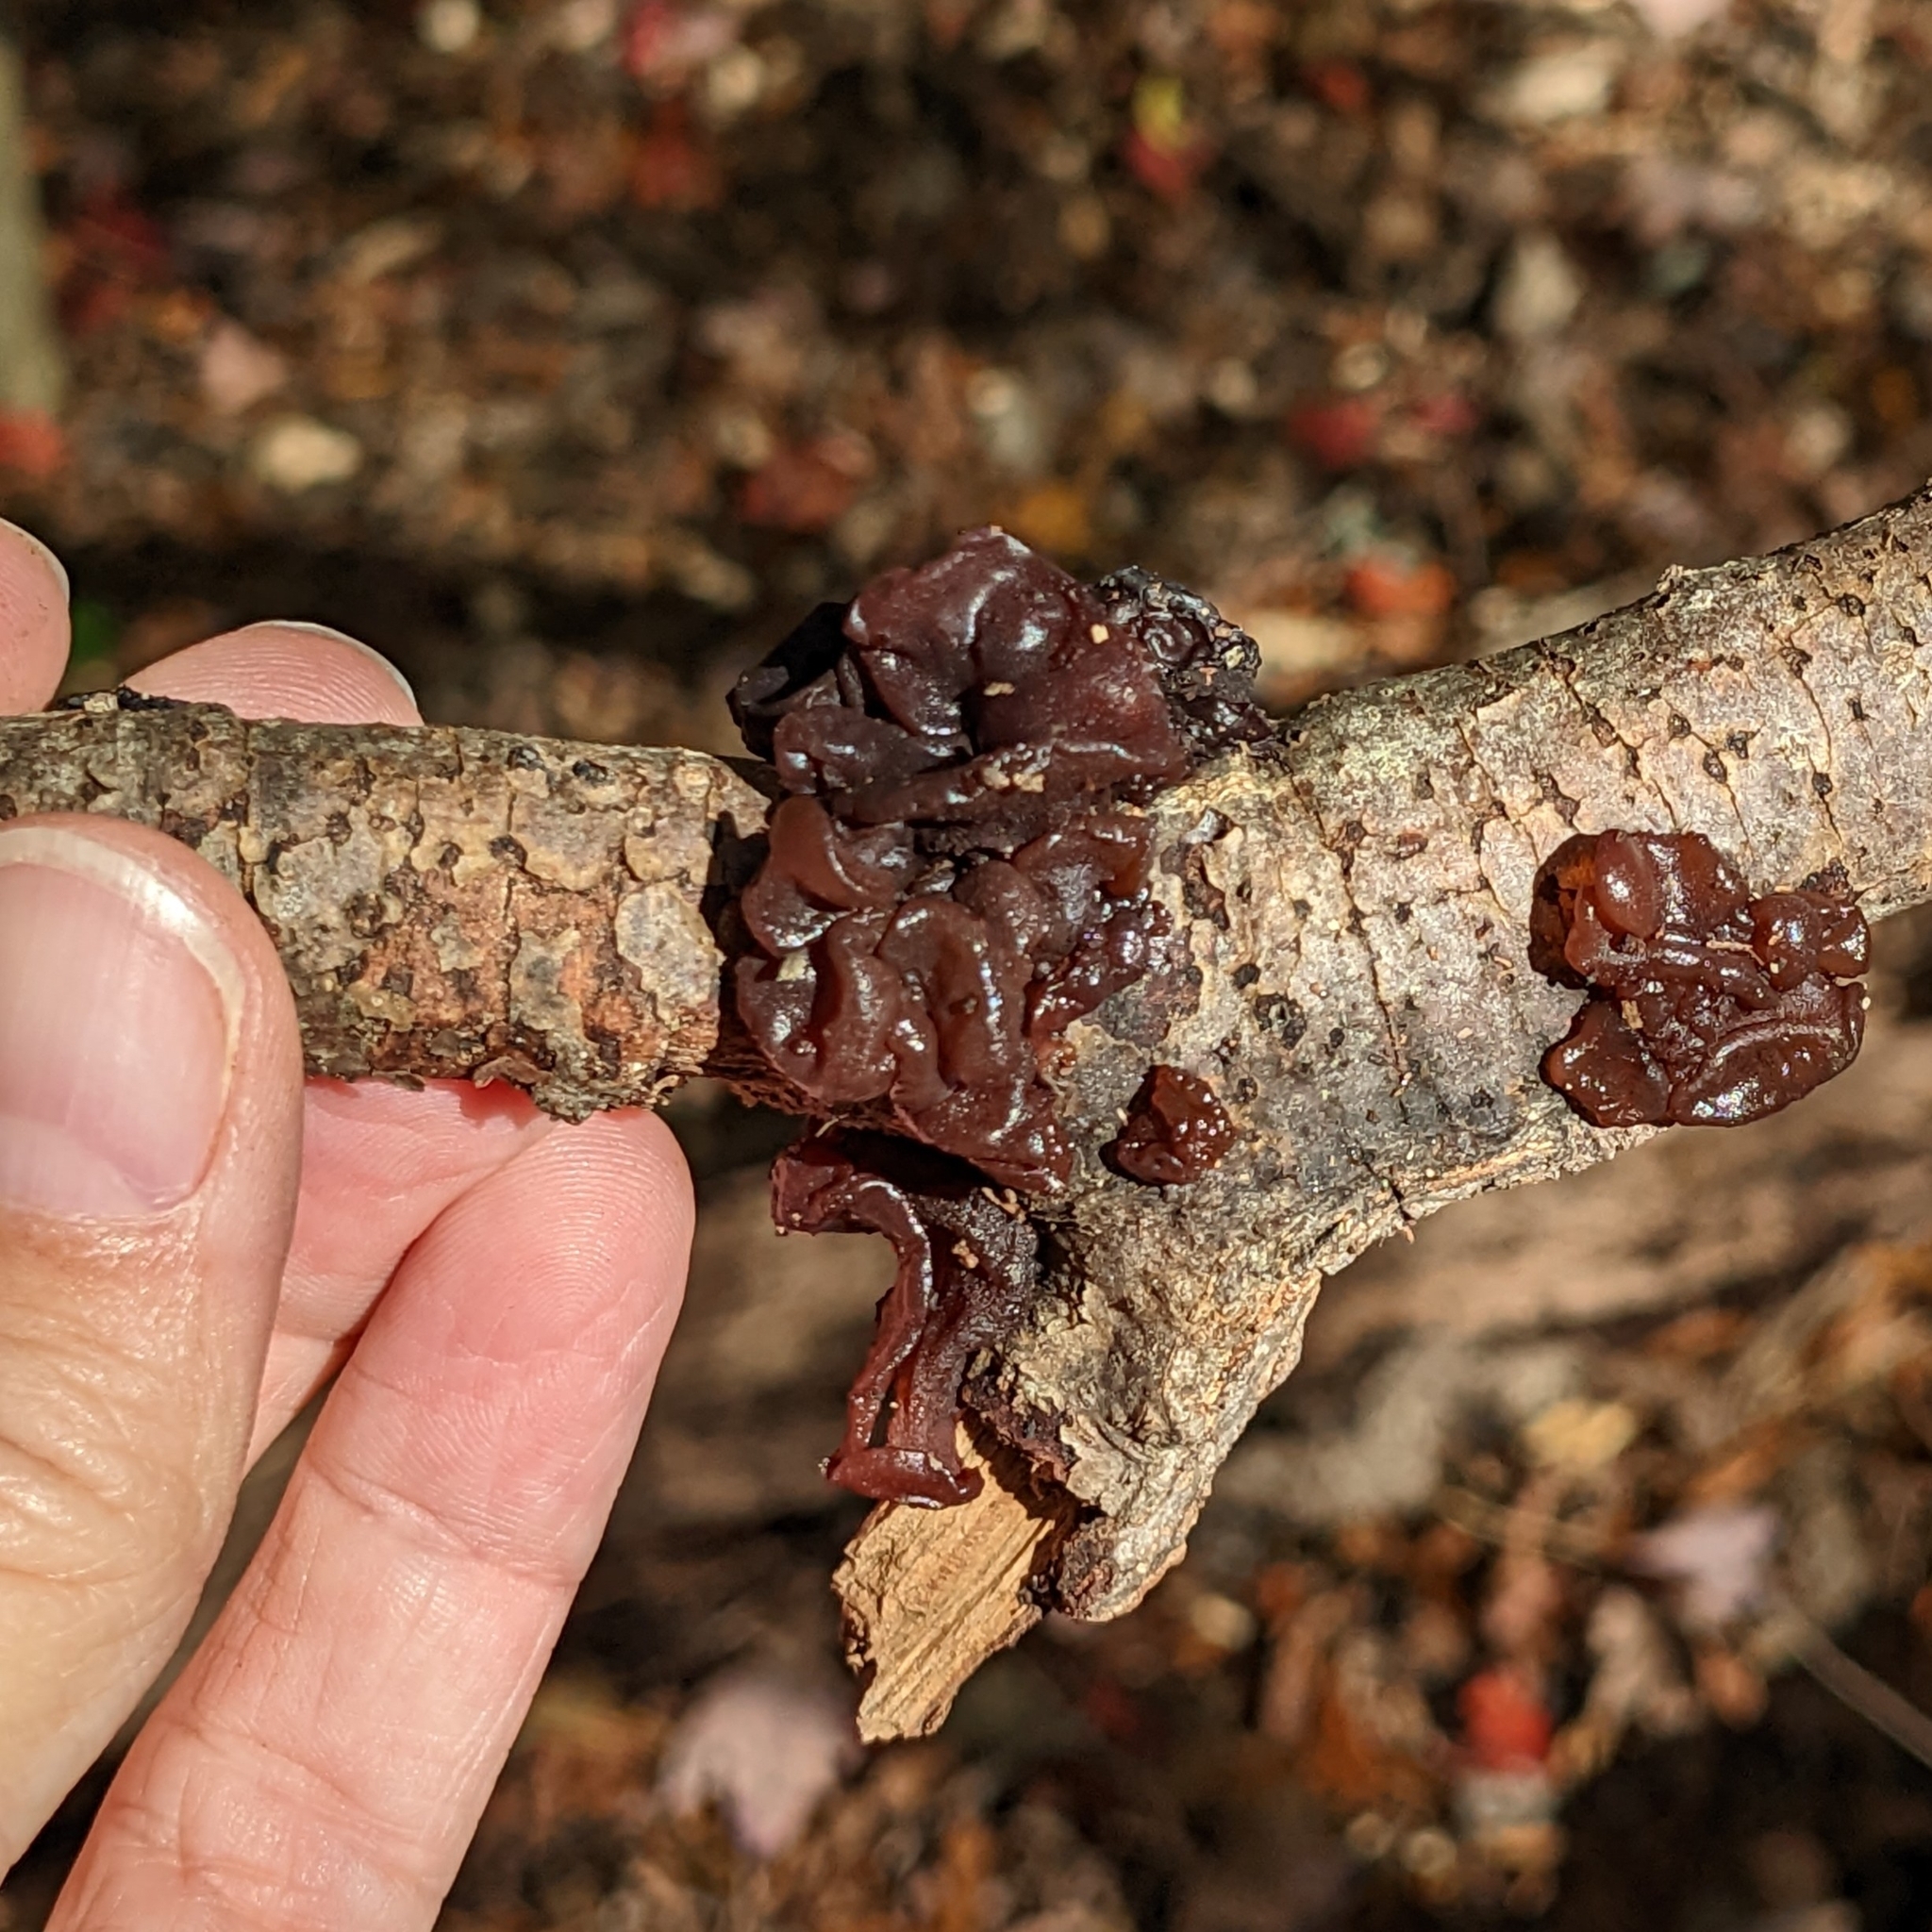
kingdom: Fungi
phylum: Basidiomycota
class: Agaricomycetes
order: Auriculariales
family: Auriculariaceae
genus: Exidia
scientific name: Exidia
